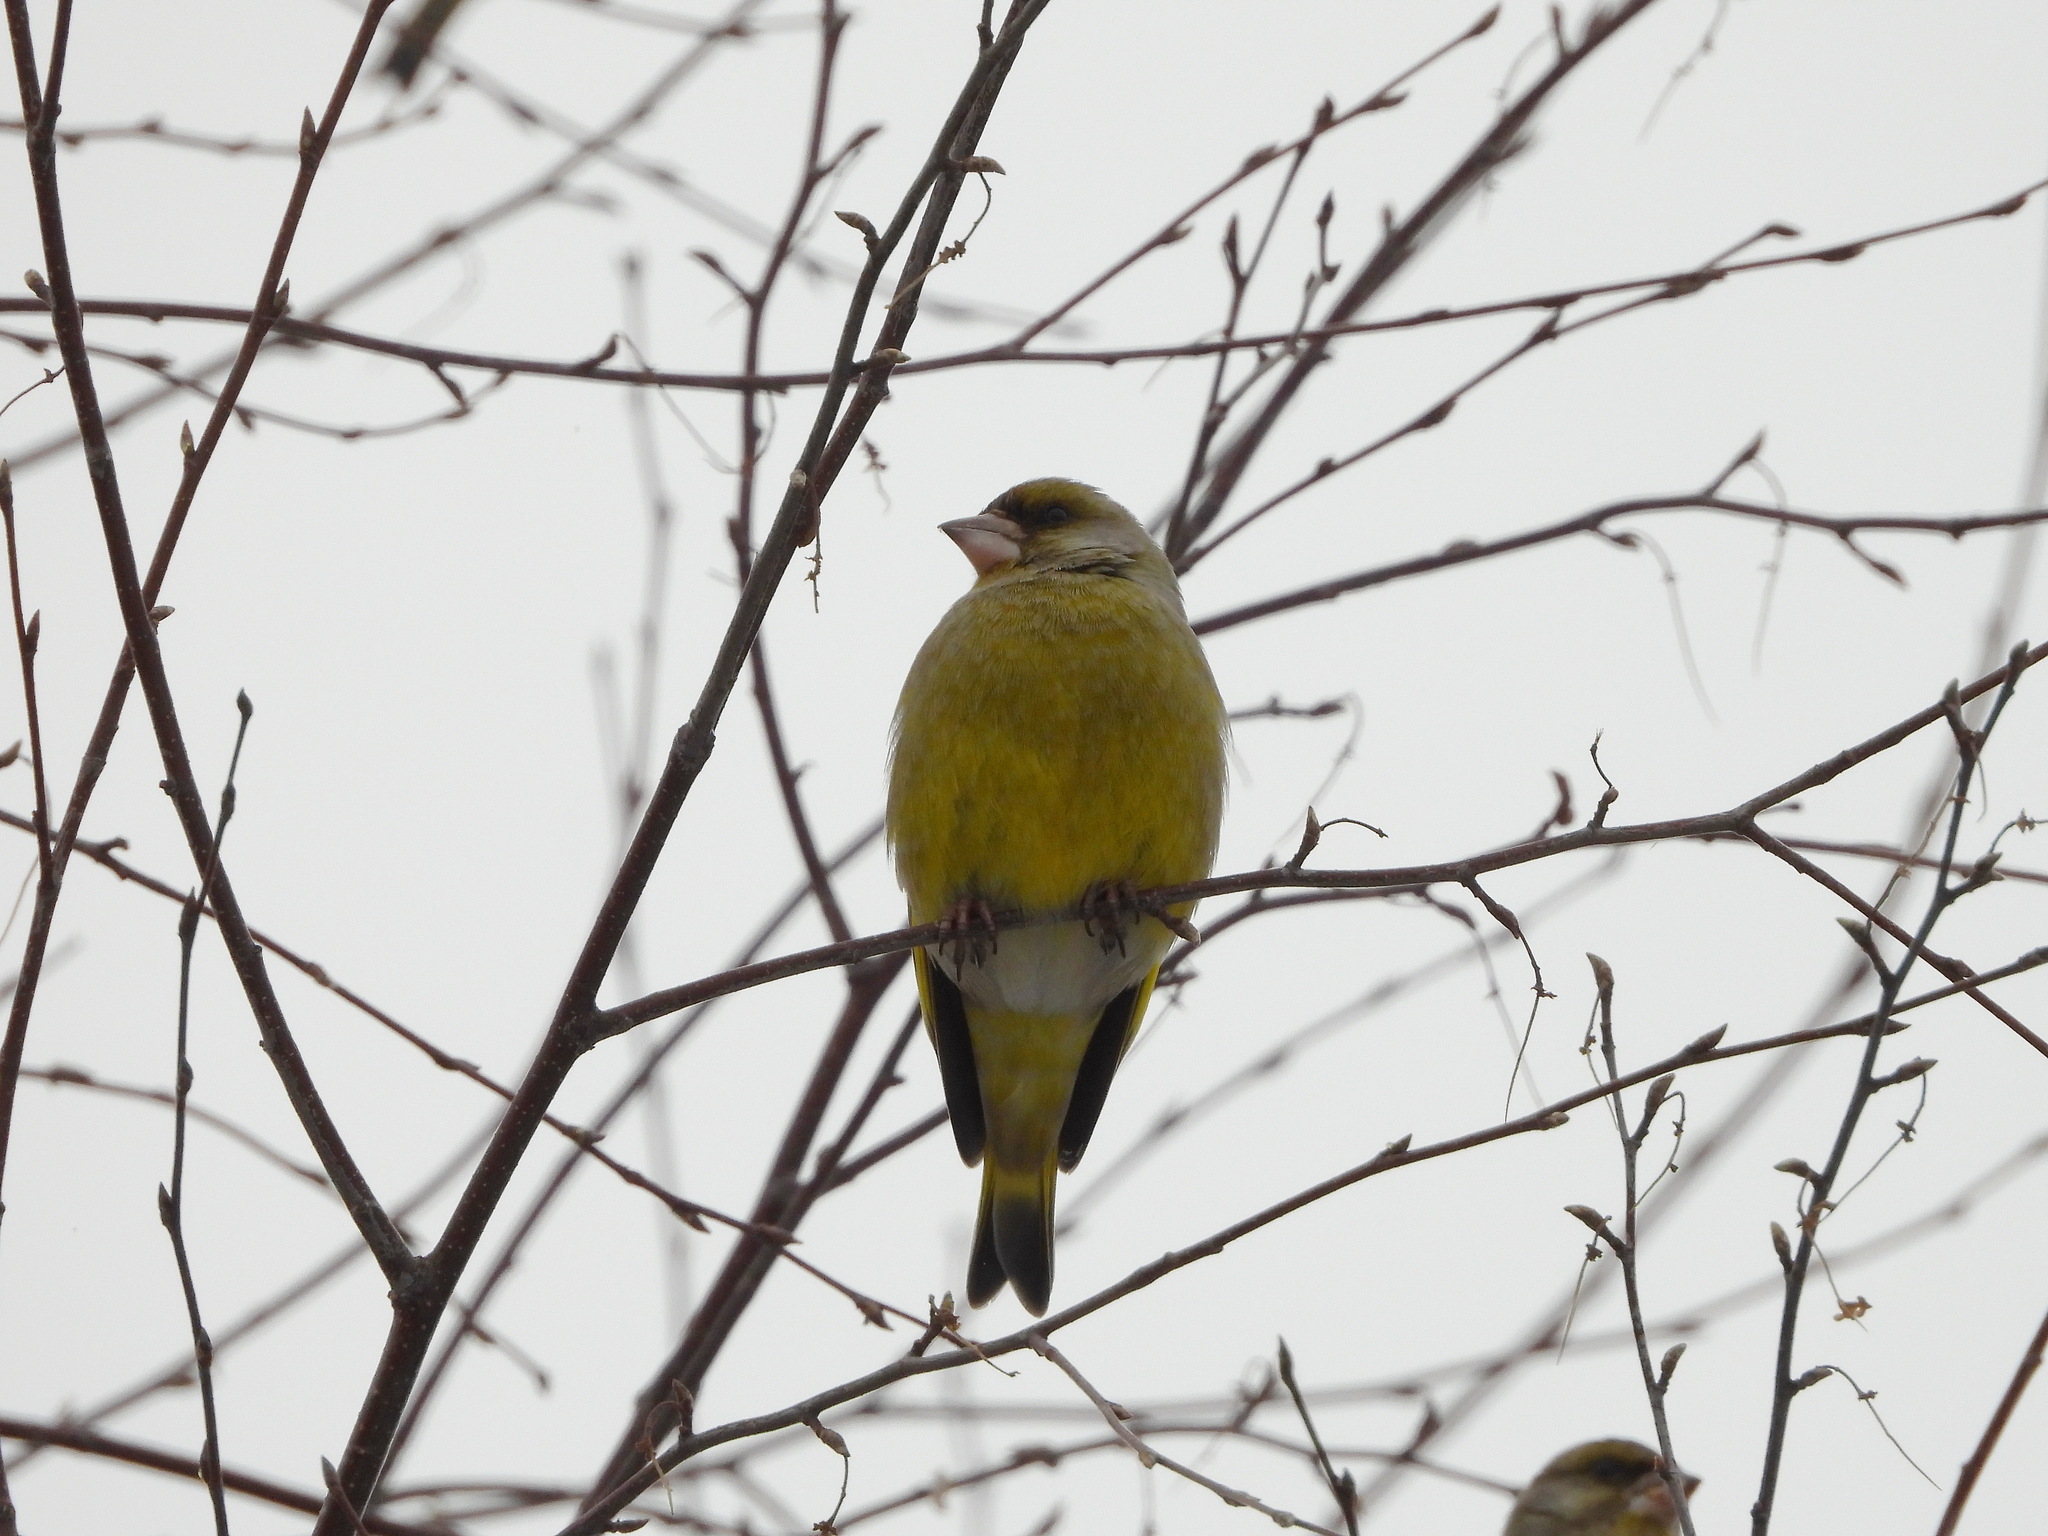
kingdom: Plantae
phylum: Tracheophyta
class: Liliopsida
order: Poales
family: Poaceae
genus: Chloris
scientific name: Chloris chloris
